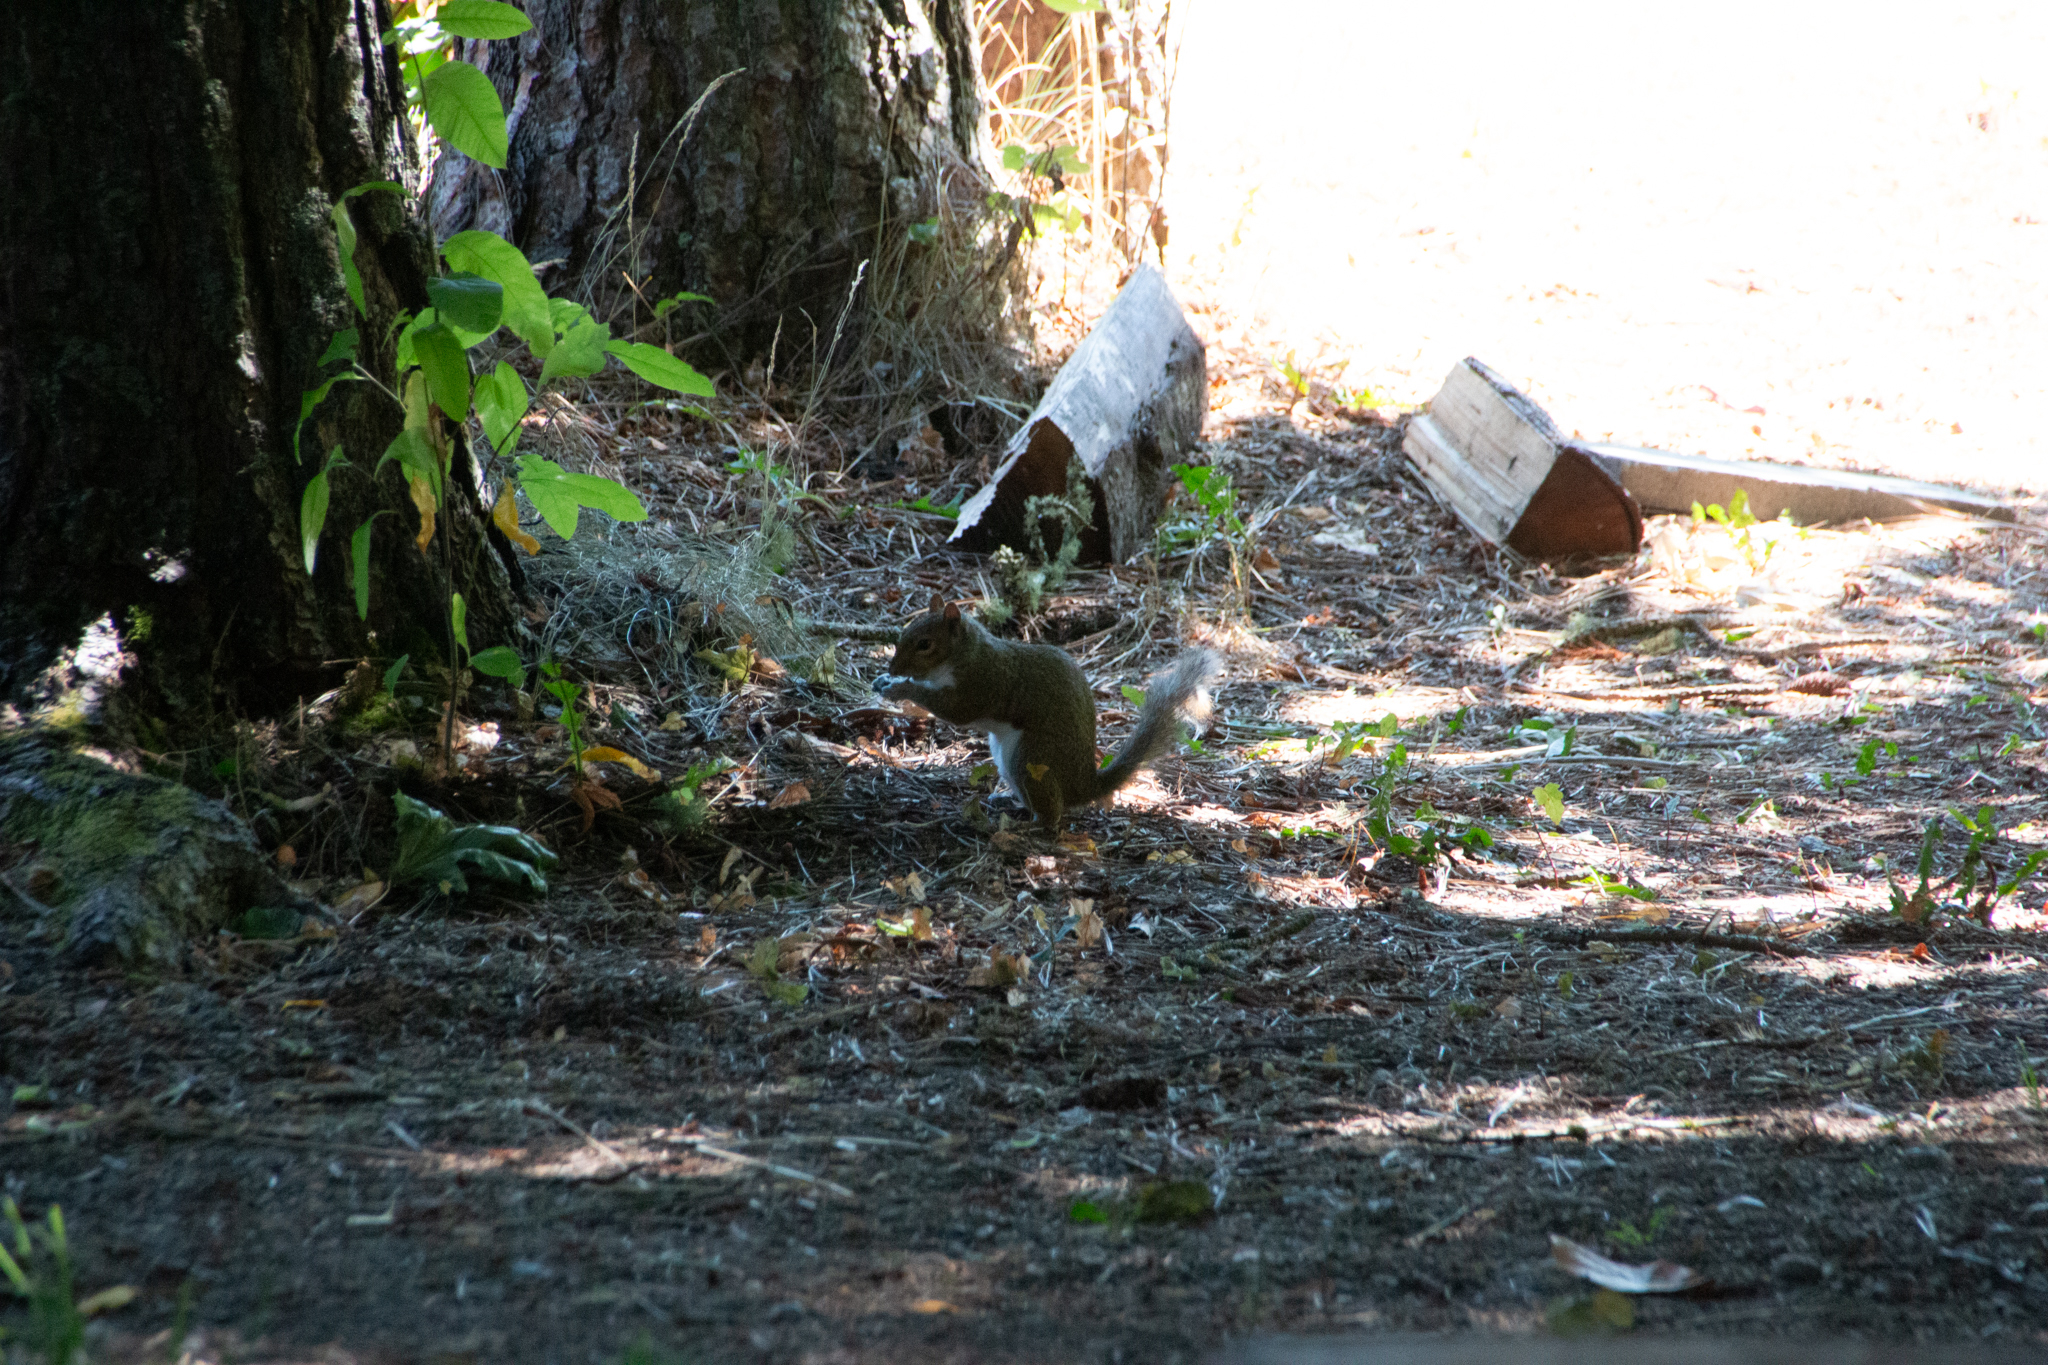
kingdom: Animalia
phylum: Chordata
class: Mammalia
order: Rodentia
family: Sciuridae
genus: Sciurus
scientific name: Sciurus carolinensis
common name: Eastern gray squirrel
